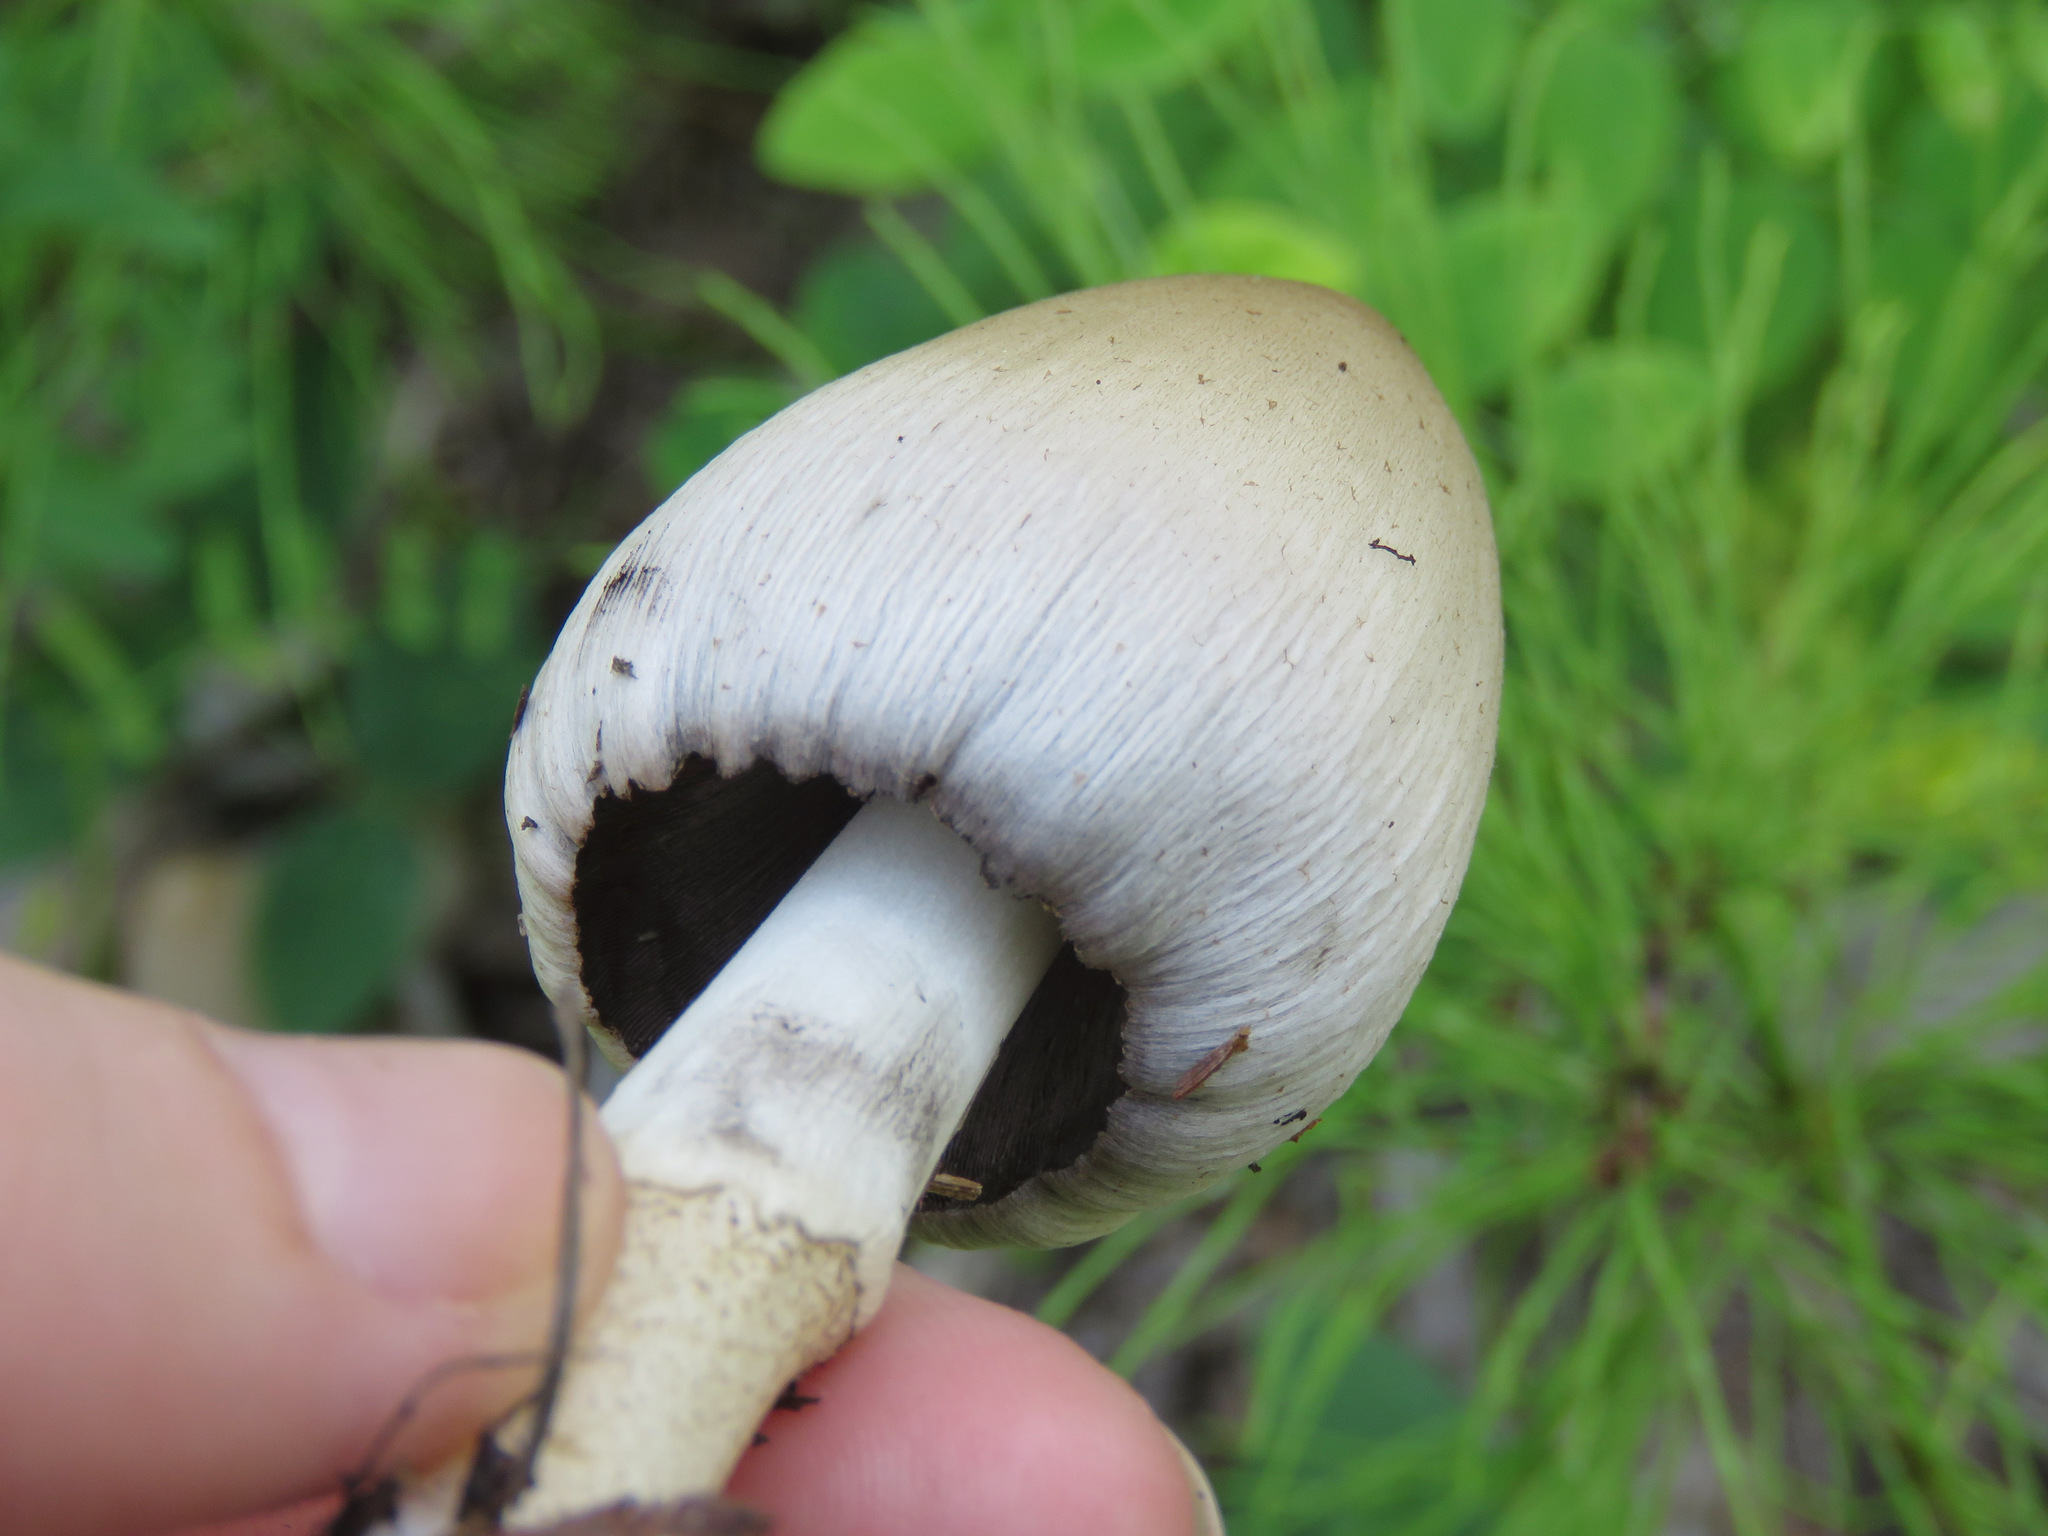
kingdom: Fungi
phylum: Basidiomycota
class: Agaricomycetes
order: Agaricales
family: Psathyrellaceae
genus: Coprinopsis
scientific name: Coprinopsis atramentaria
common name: Common ink-cap
